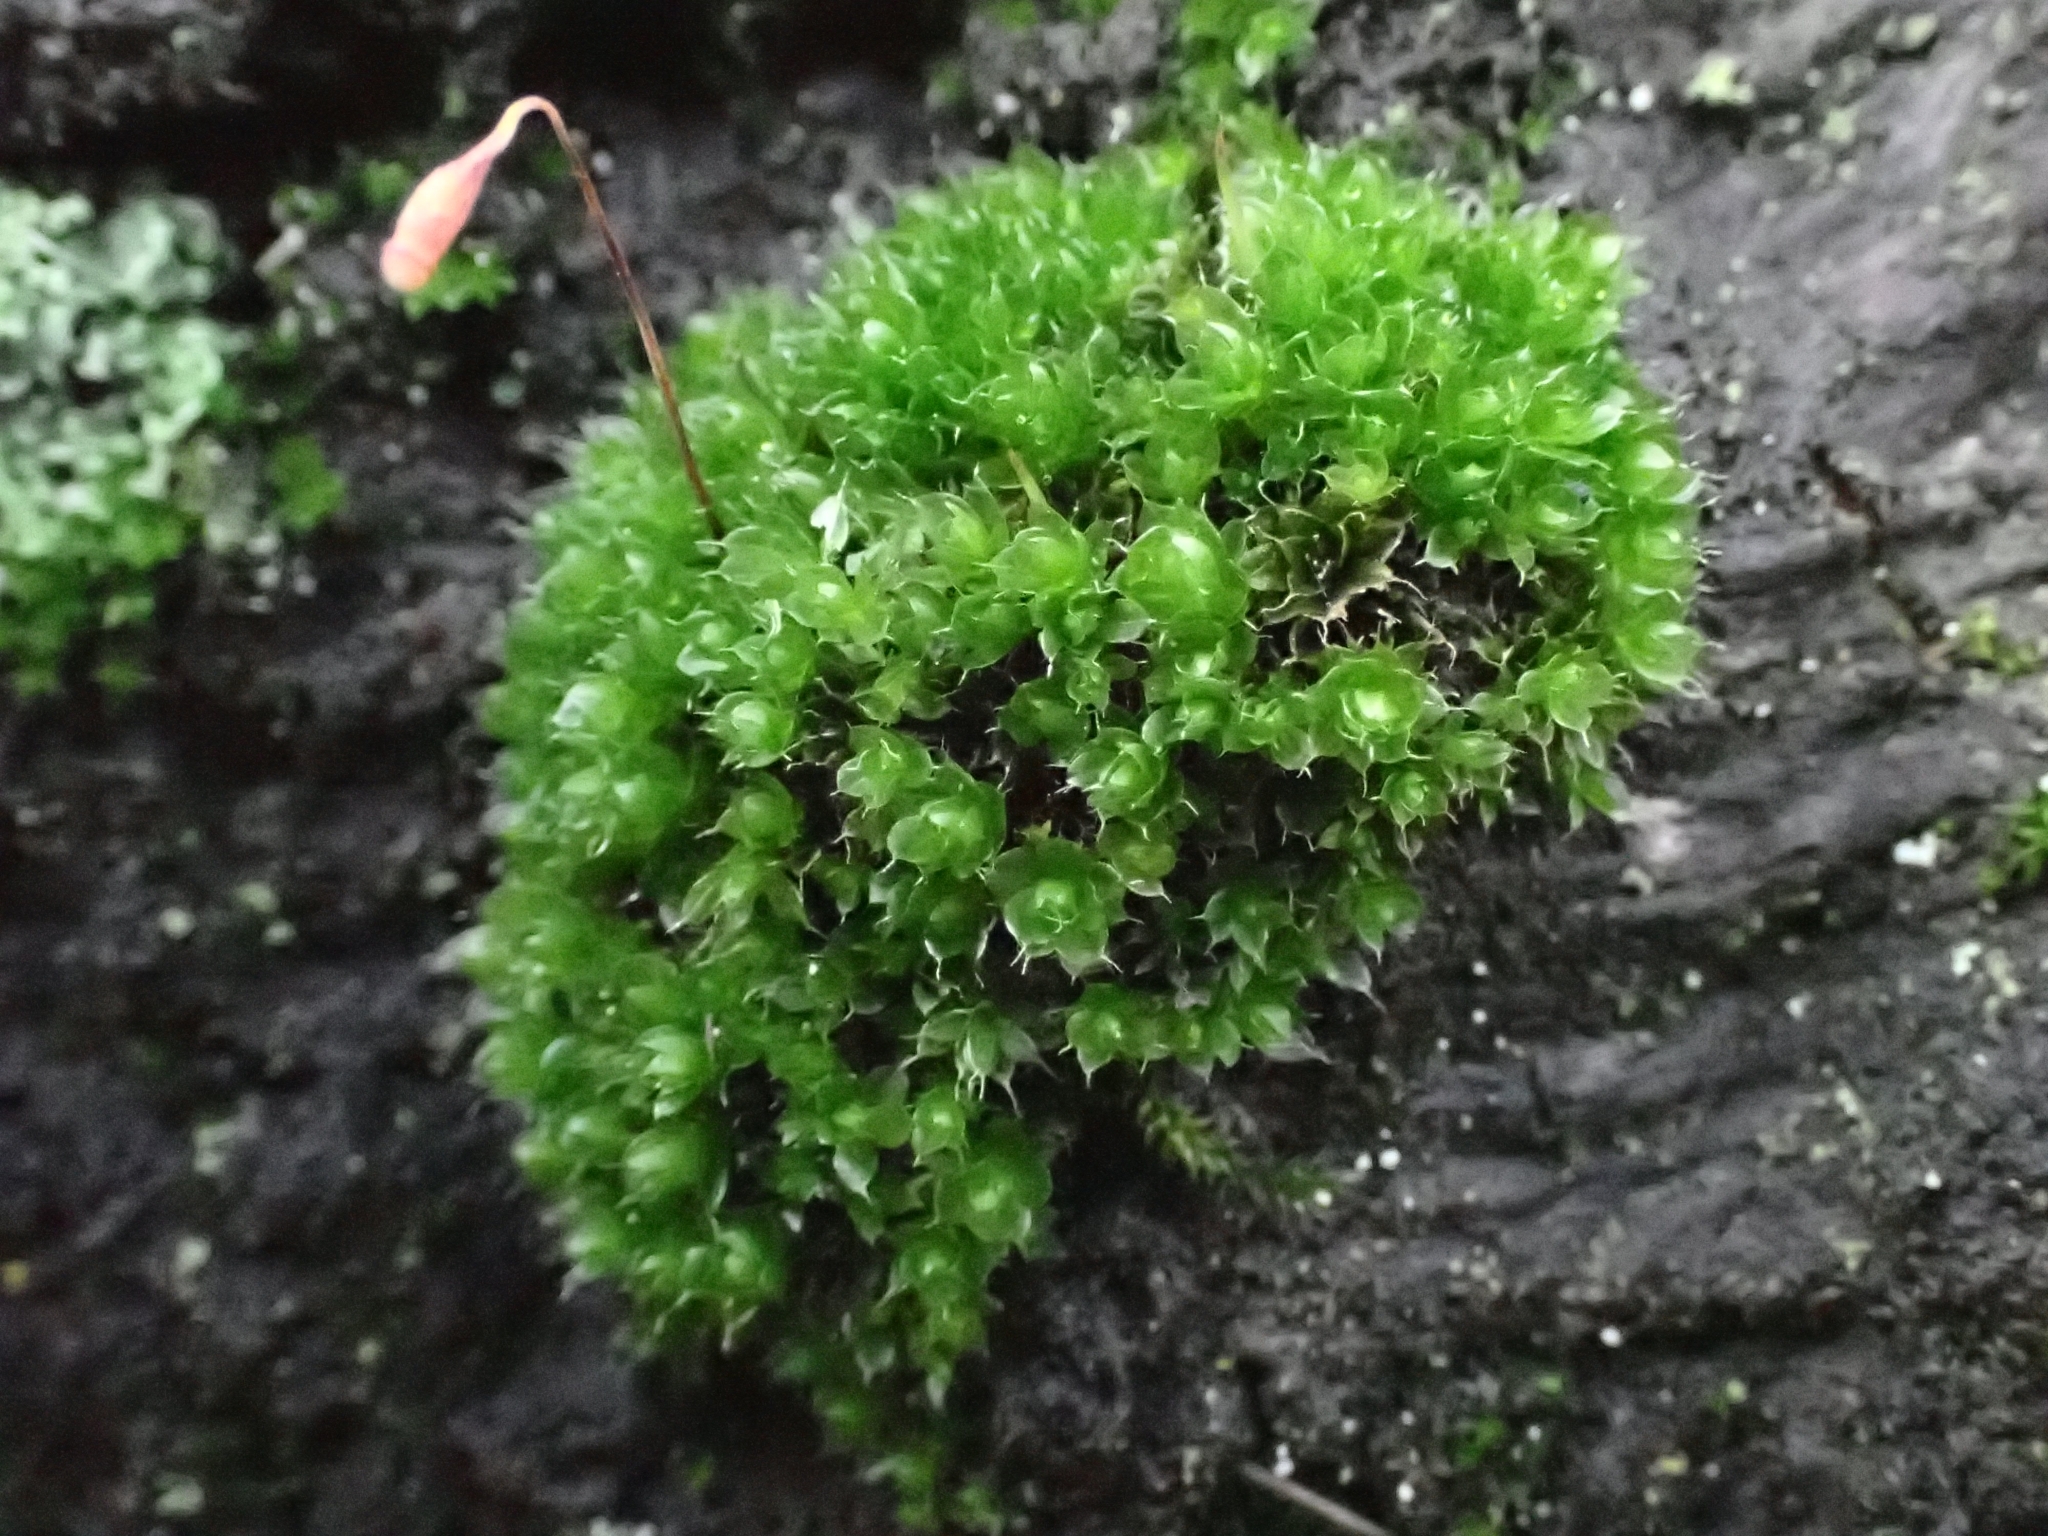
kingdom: Plantae
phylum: Bryophyta
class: Bryopsida
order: Bryales
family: Bryaceae
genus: Rosulabryum
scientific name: Rosulabryum capillare
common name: Capillary thread-moss
